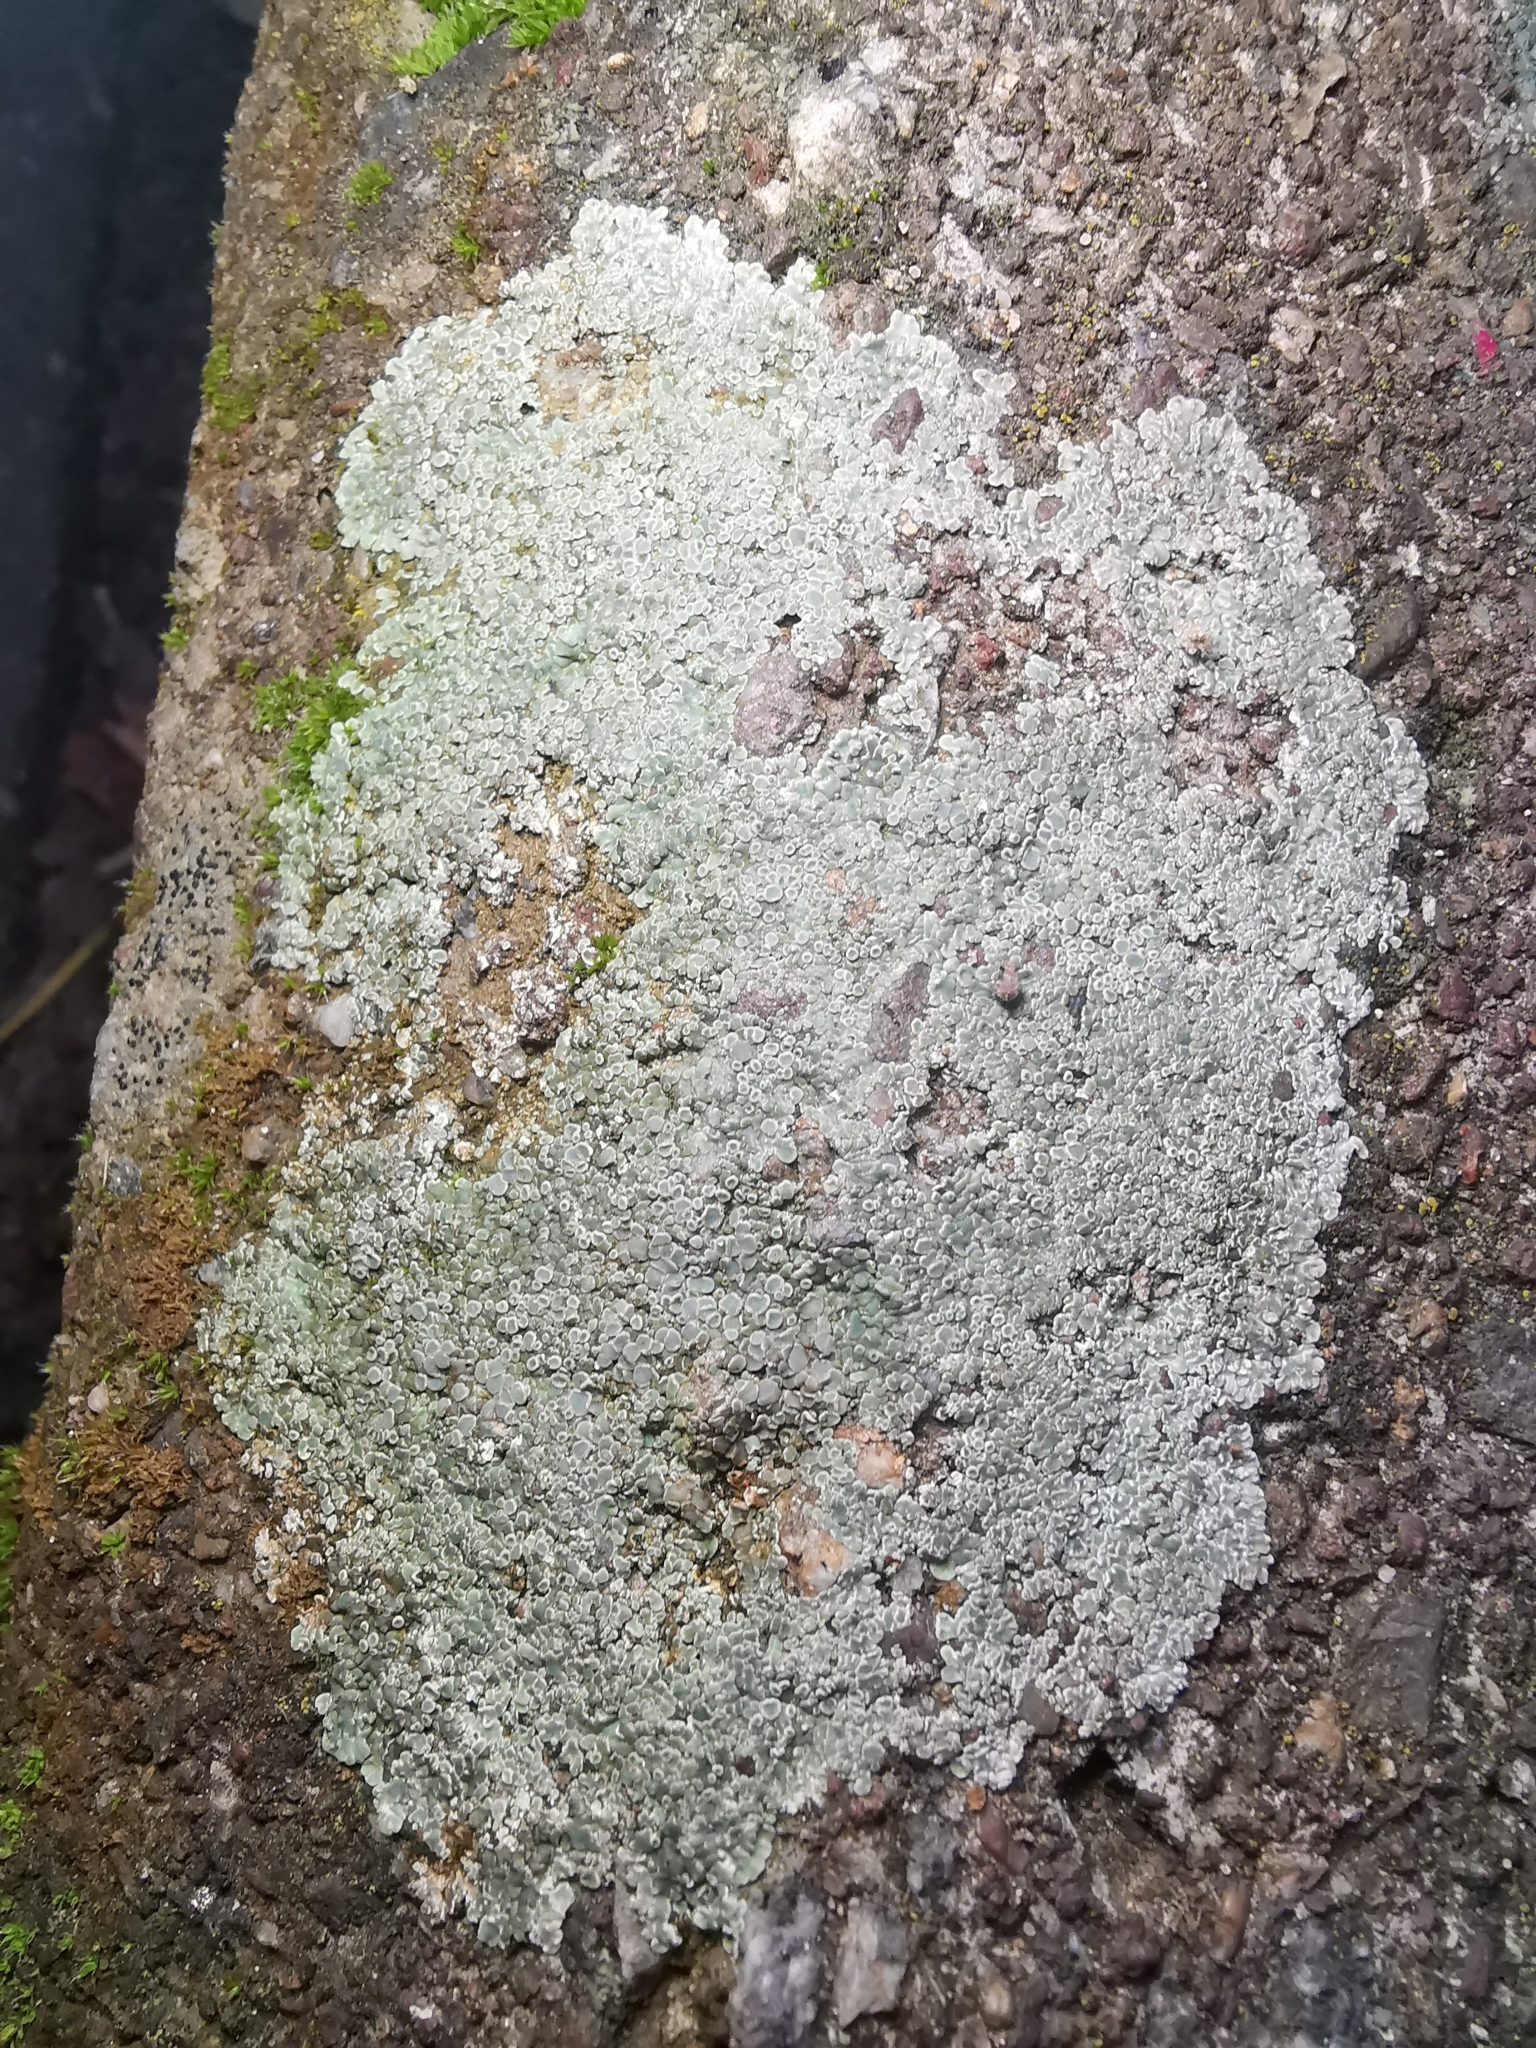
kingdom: Fungi
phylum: Ascomycota
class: Lecanoromycetes
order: Lecanorales
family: Lecanoraceae
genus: Protoparmeliopsis
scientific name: Protoparmeliopsis muralis
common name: Stonewall rim lichen
